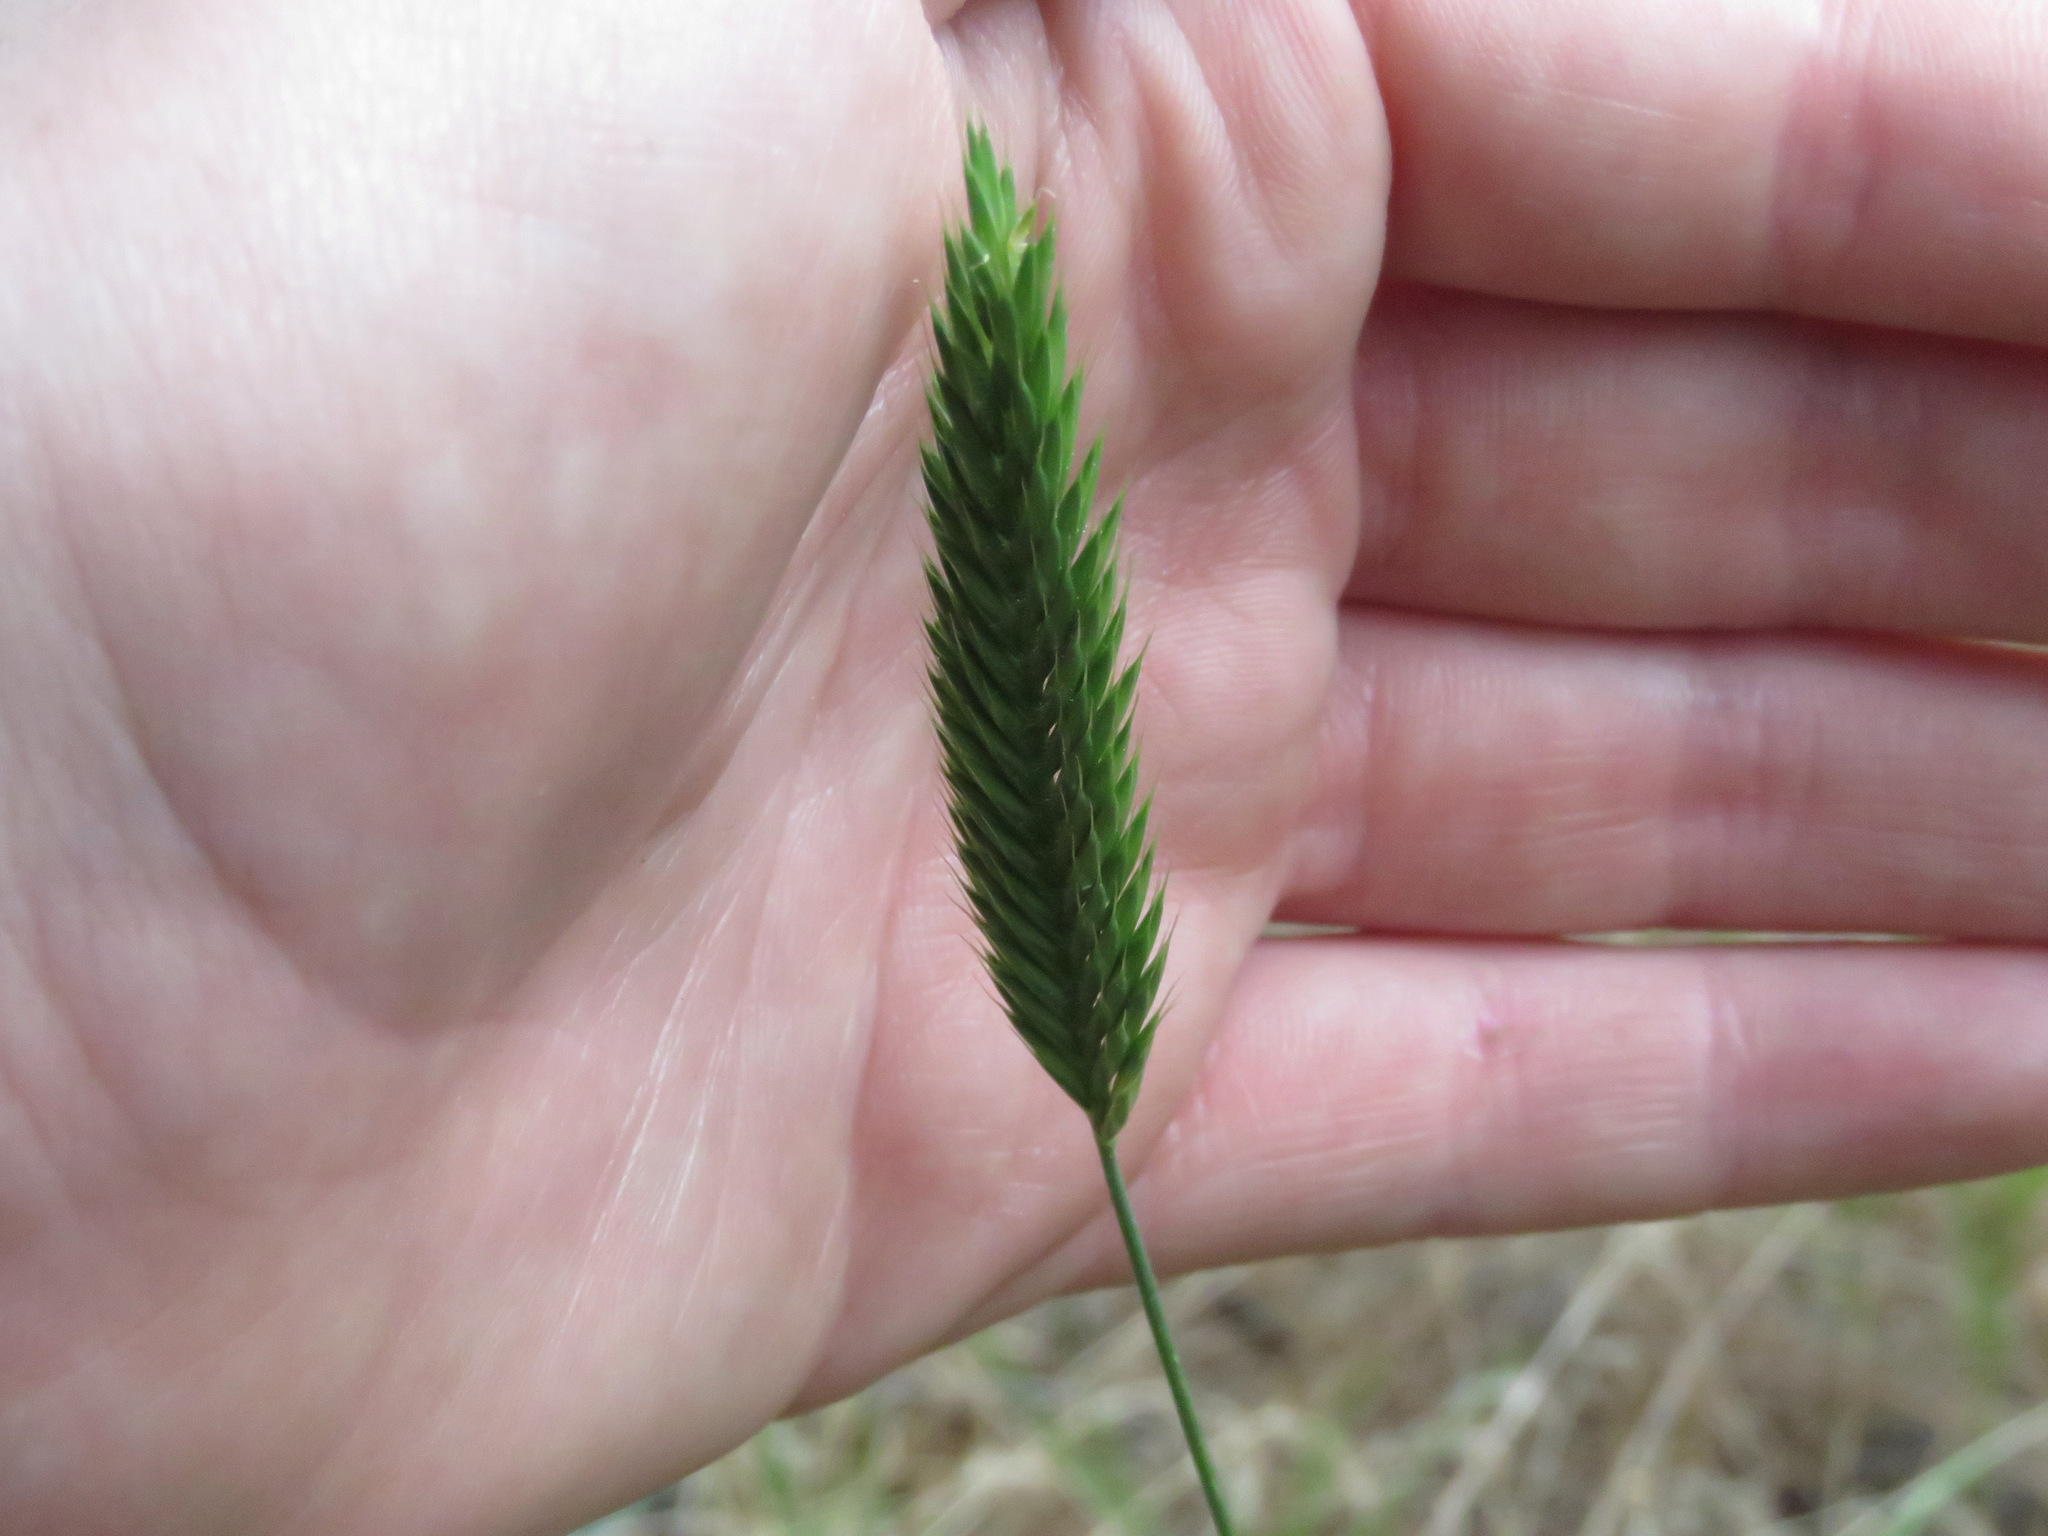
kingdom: Plantae
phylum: Tracheophyta
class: Liliopsida
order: Poales
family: Poaceae
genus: Agropyron
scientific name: Agropyron cristatum
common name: Crested wheatgrass
